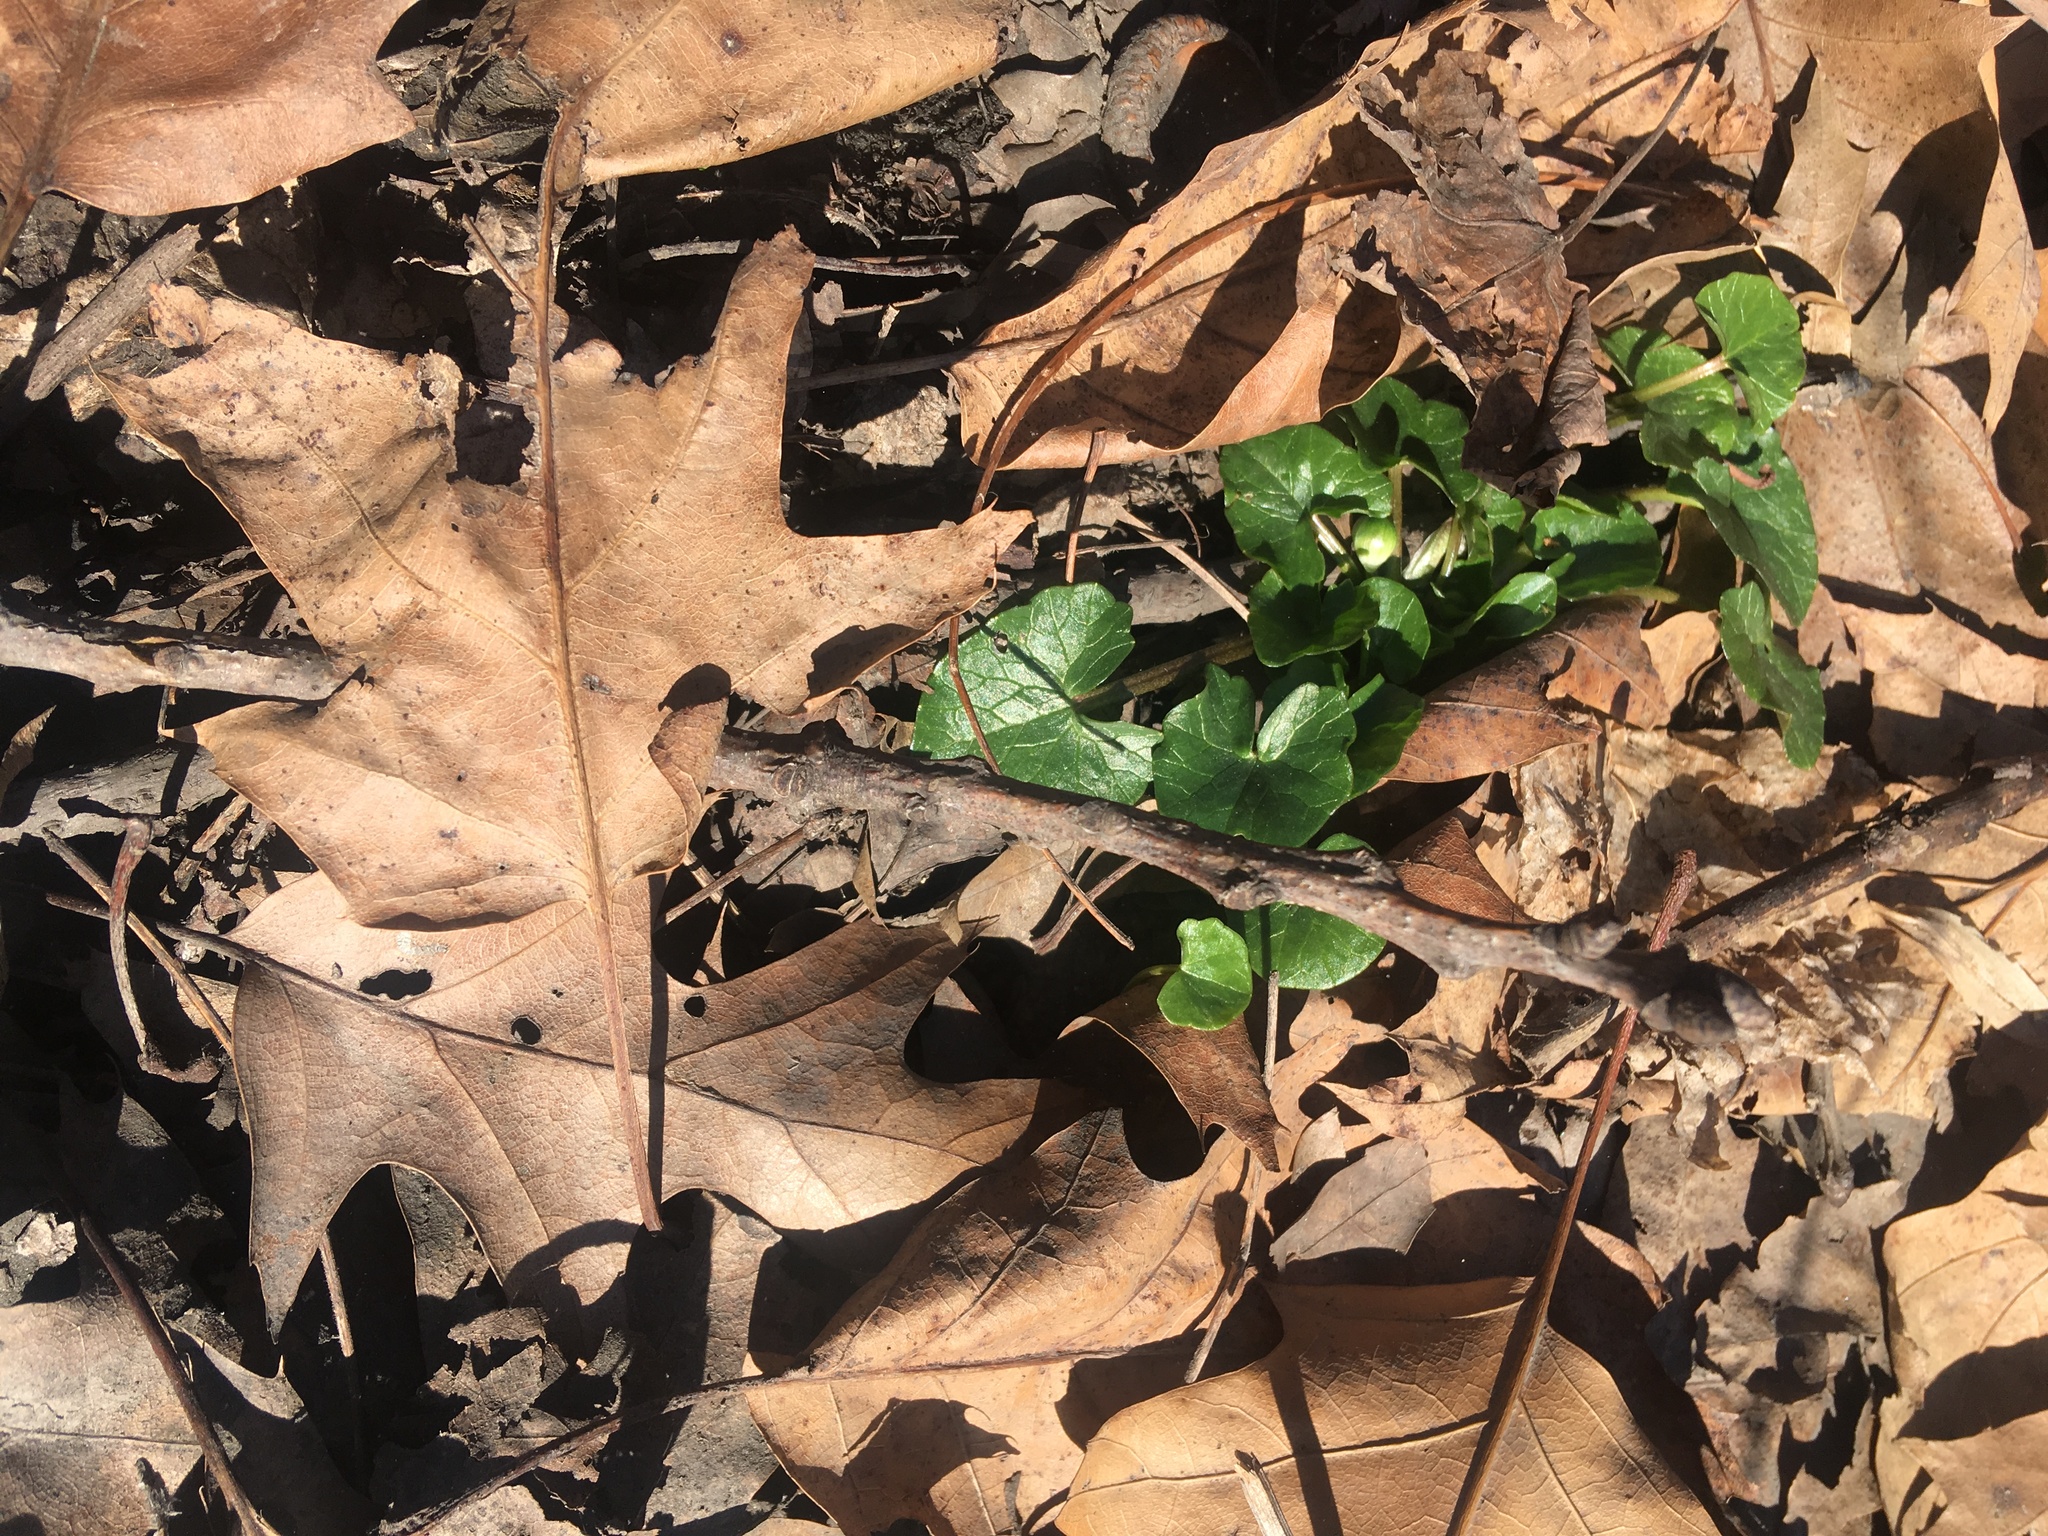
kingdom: Plantae
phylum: Tracheophyta
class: Magnoliopsida
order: Ranunculales
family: Ranunculaceae
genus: Ficaria
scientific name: Ficaria verna
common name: Lesser celandine
